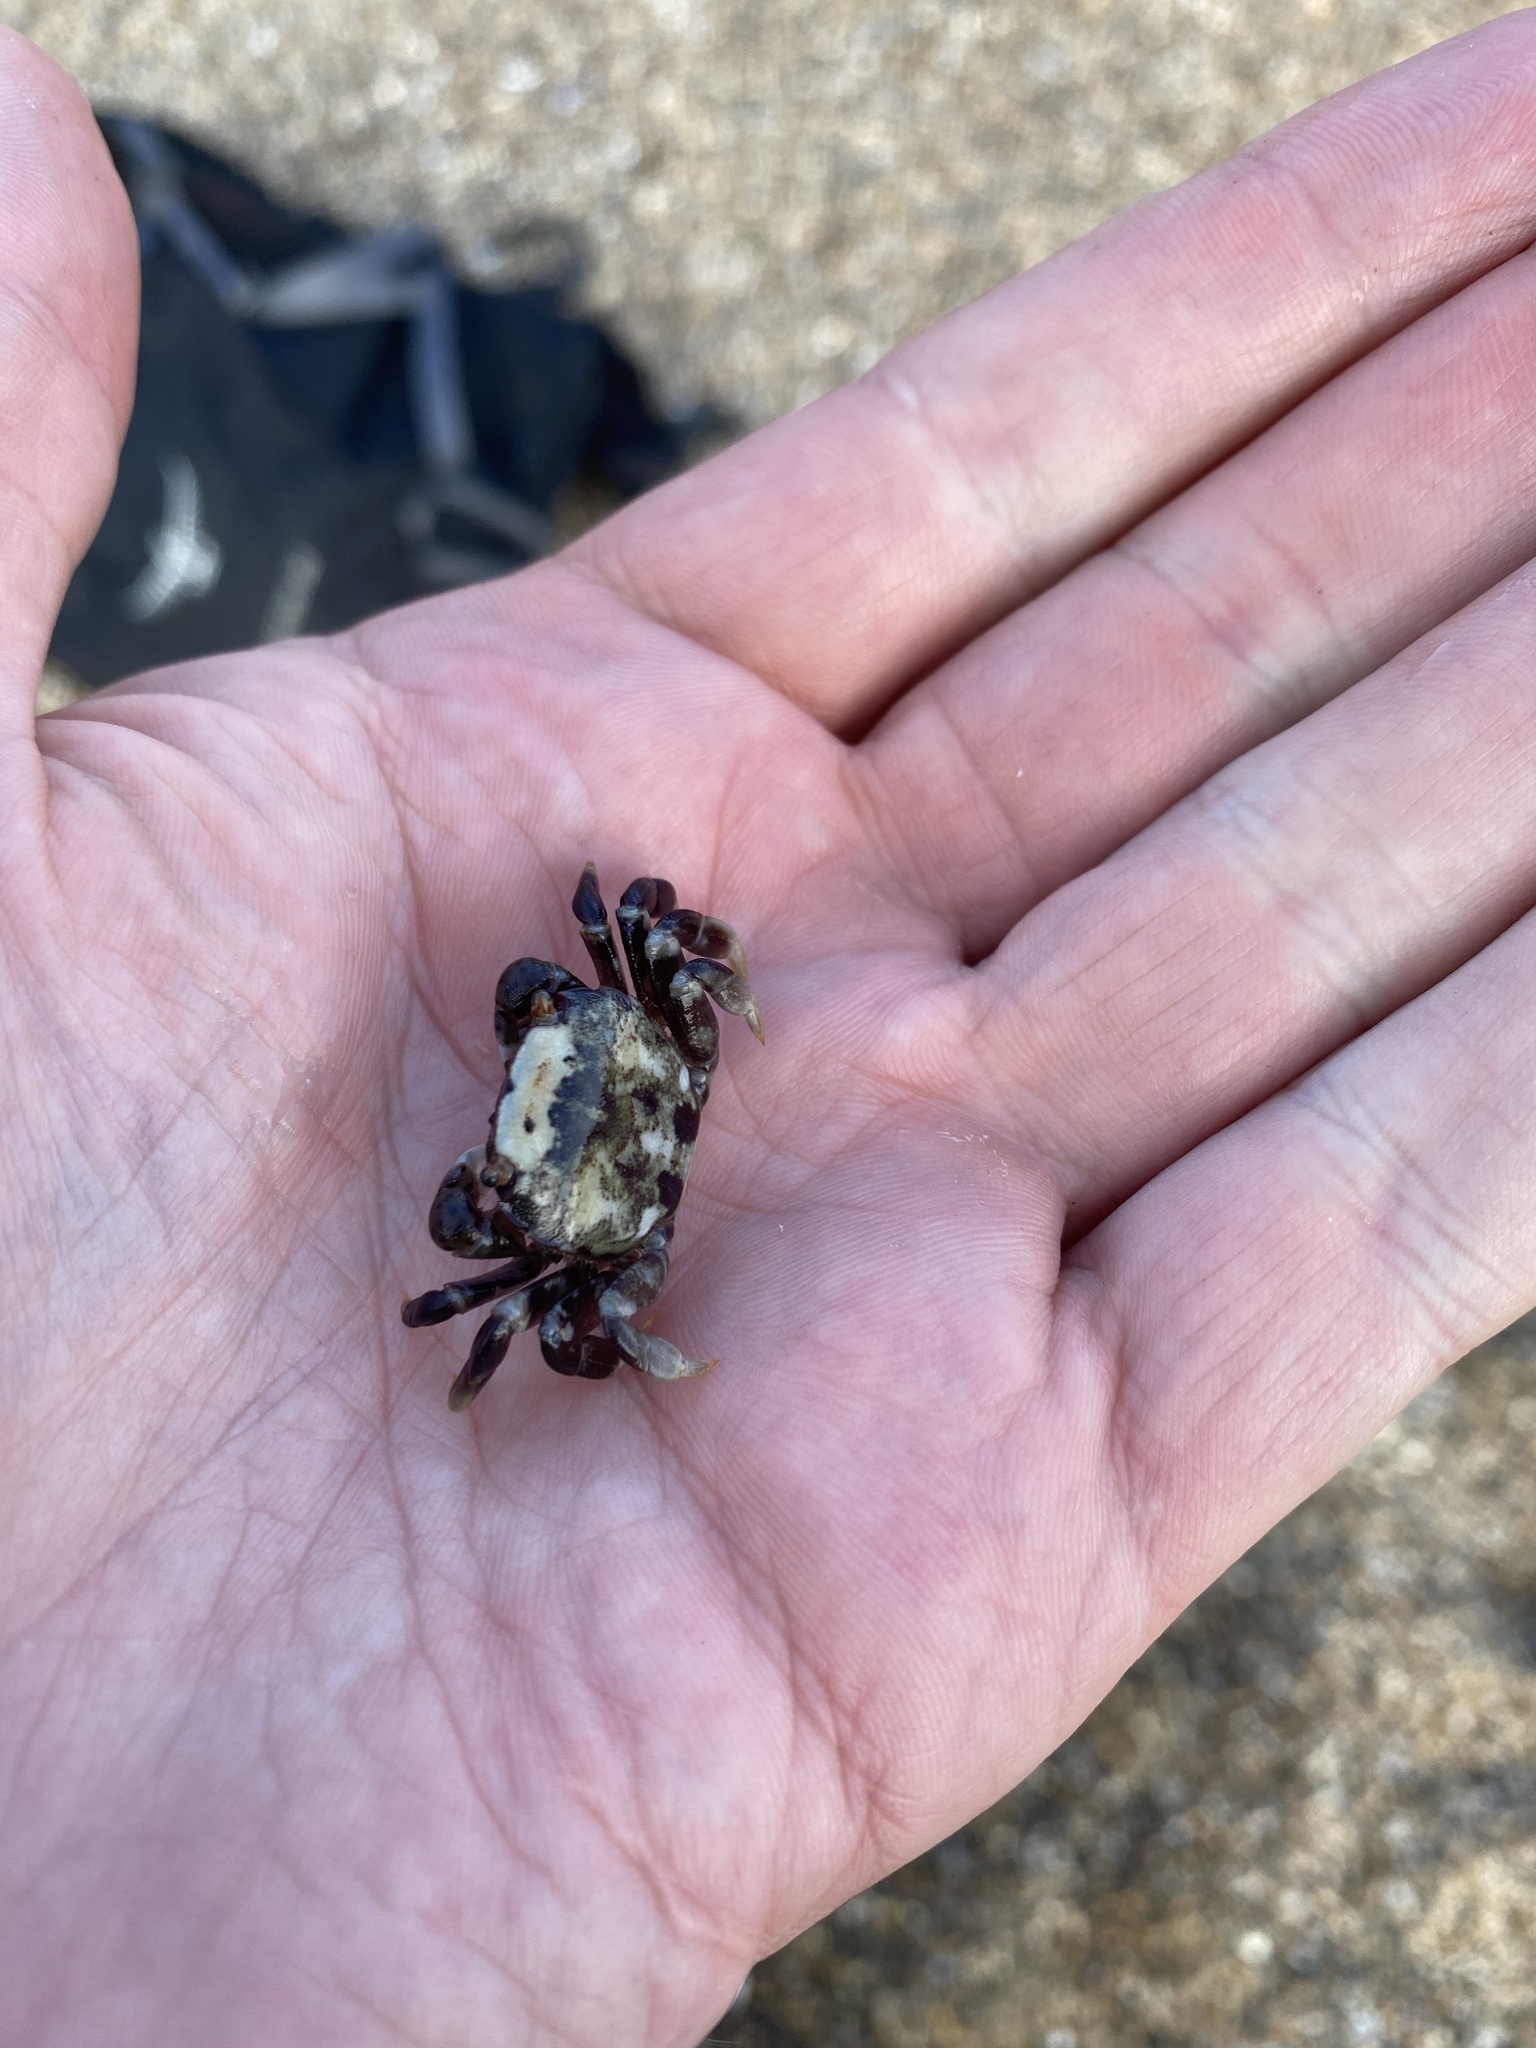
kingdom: Animalia
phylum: Arthropoda
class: Malacostraca
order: Decapoda
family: Varunidae
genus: Hemigrapsus
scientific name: Hemigrapsus nudus
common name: Purple shore crab
